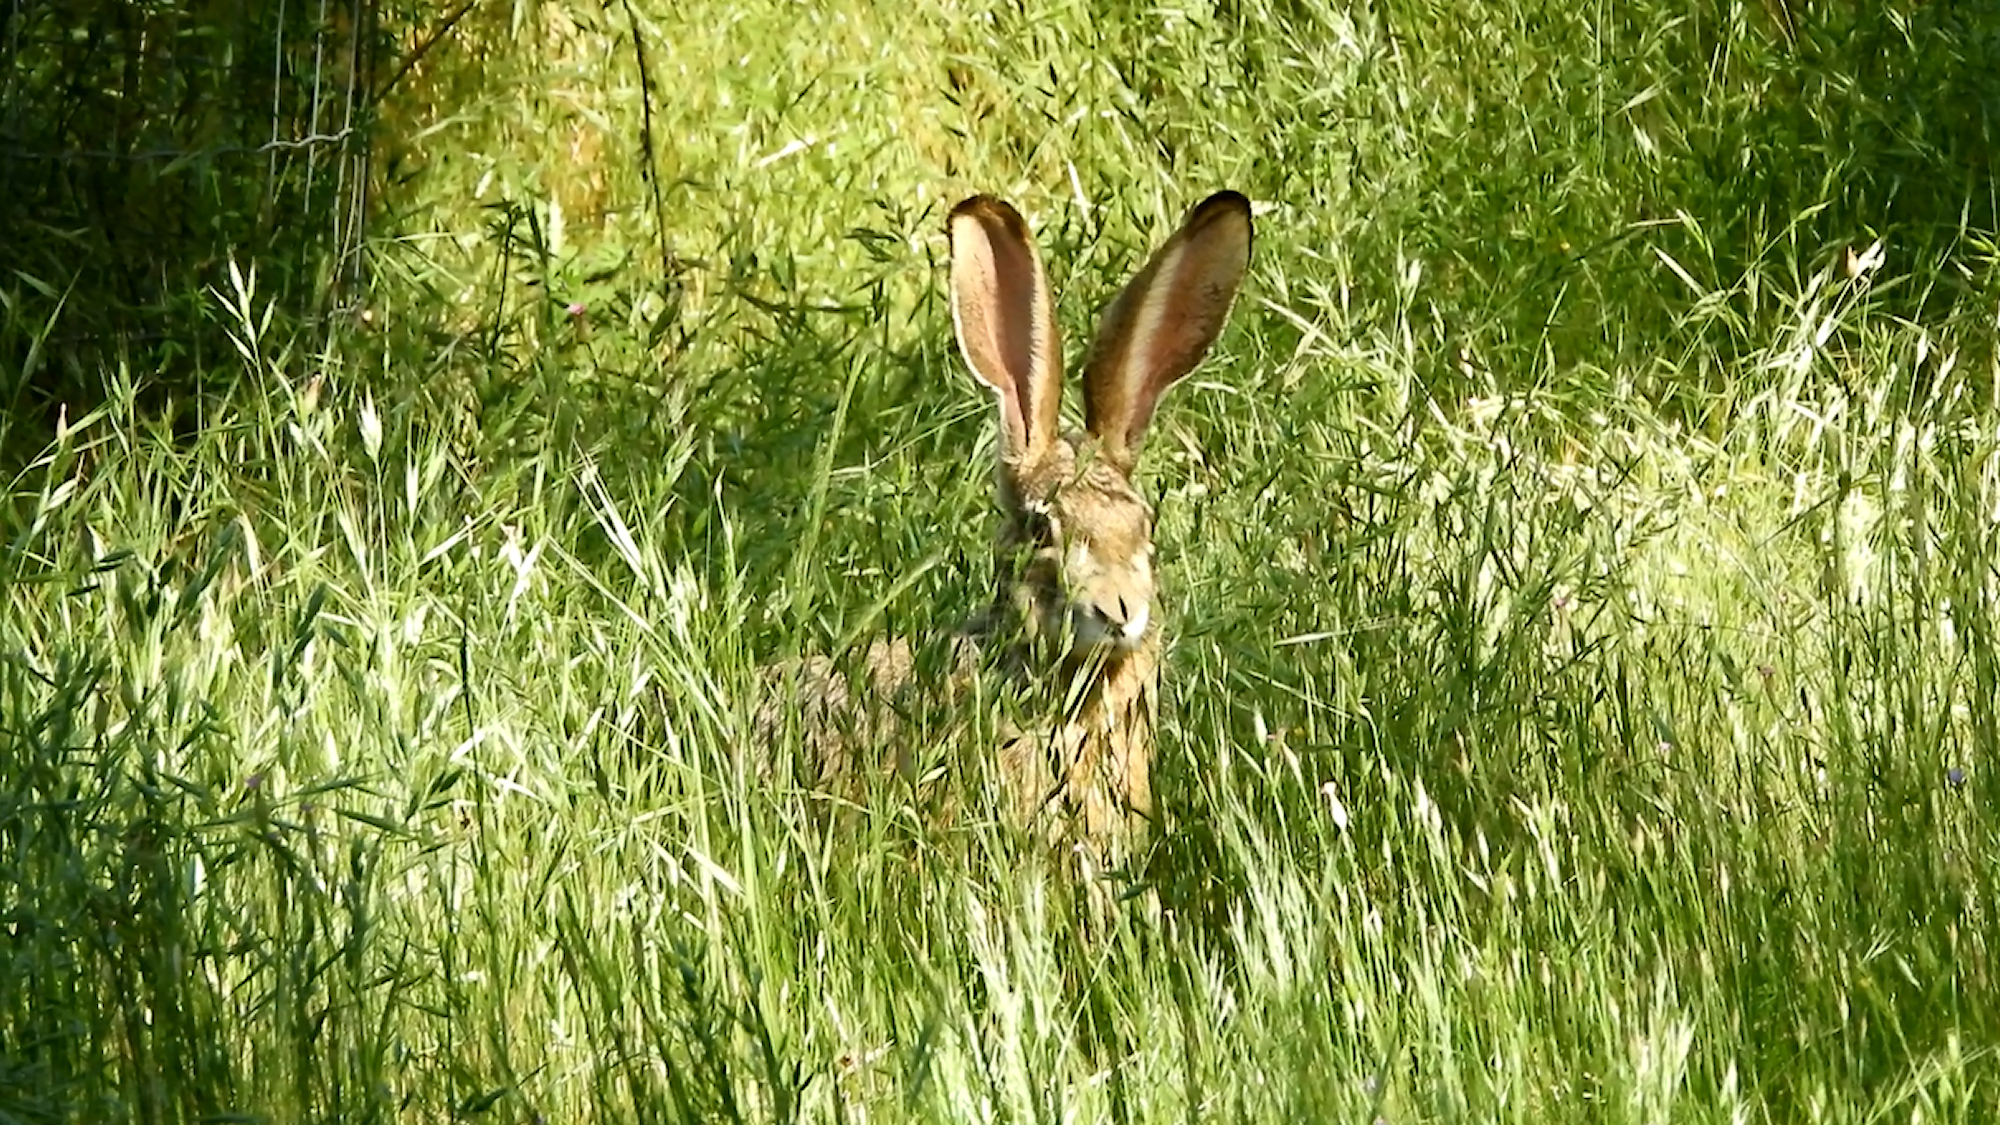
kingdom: Animalia
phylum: Chordata
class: Mammalia
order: Lagomorpha
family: Leporidae
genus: Lepus
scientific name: Lepus californicus
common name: Black-tailed jackrabbit
